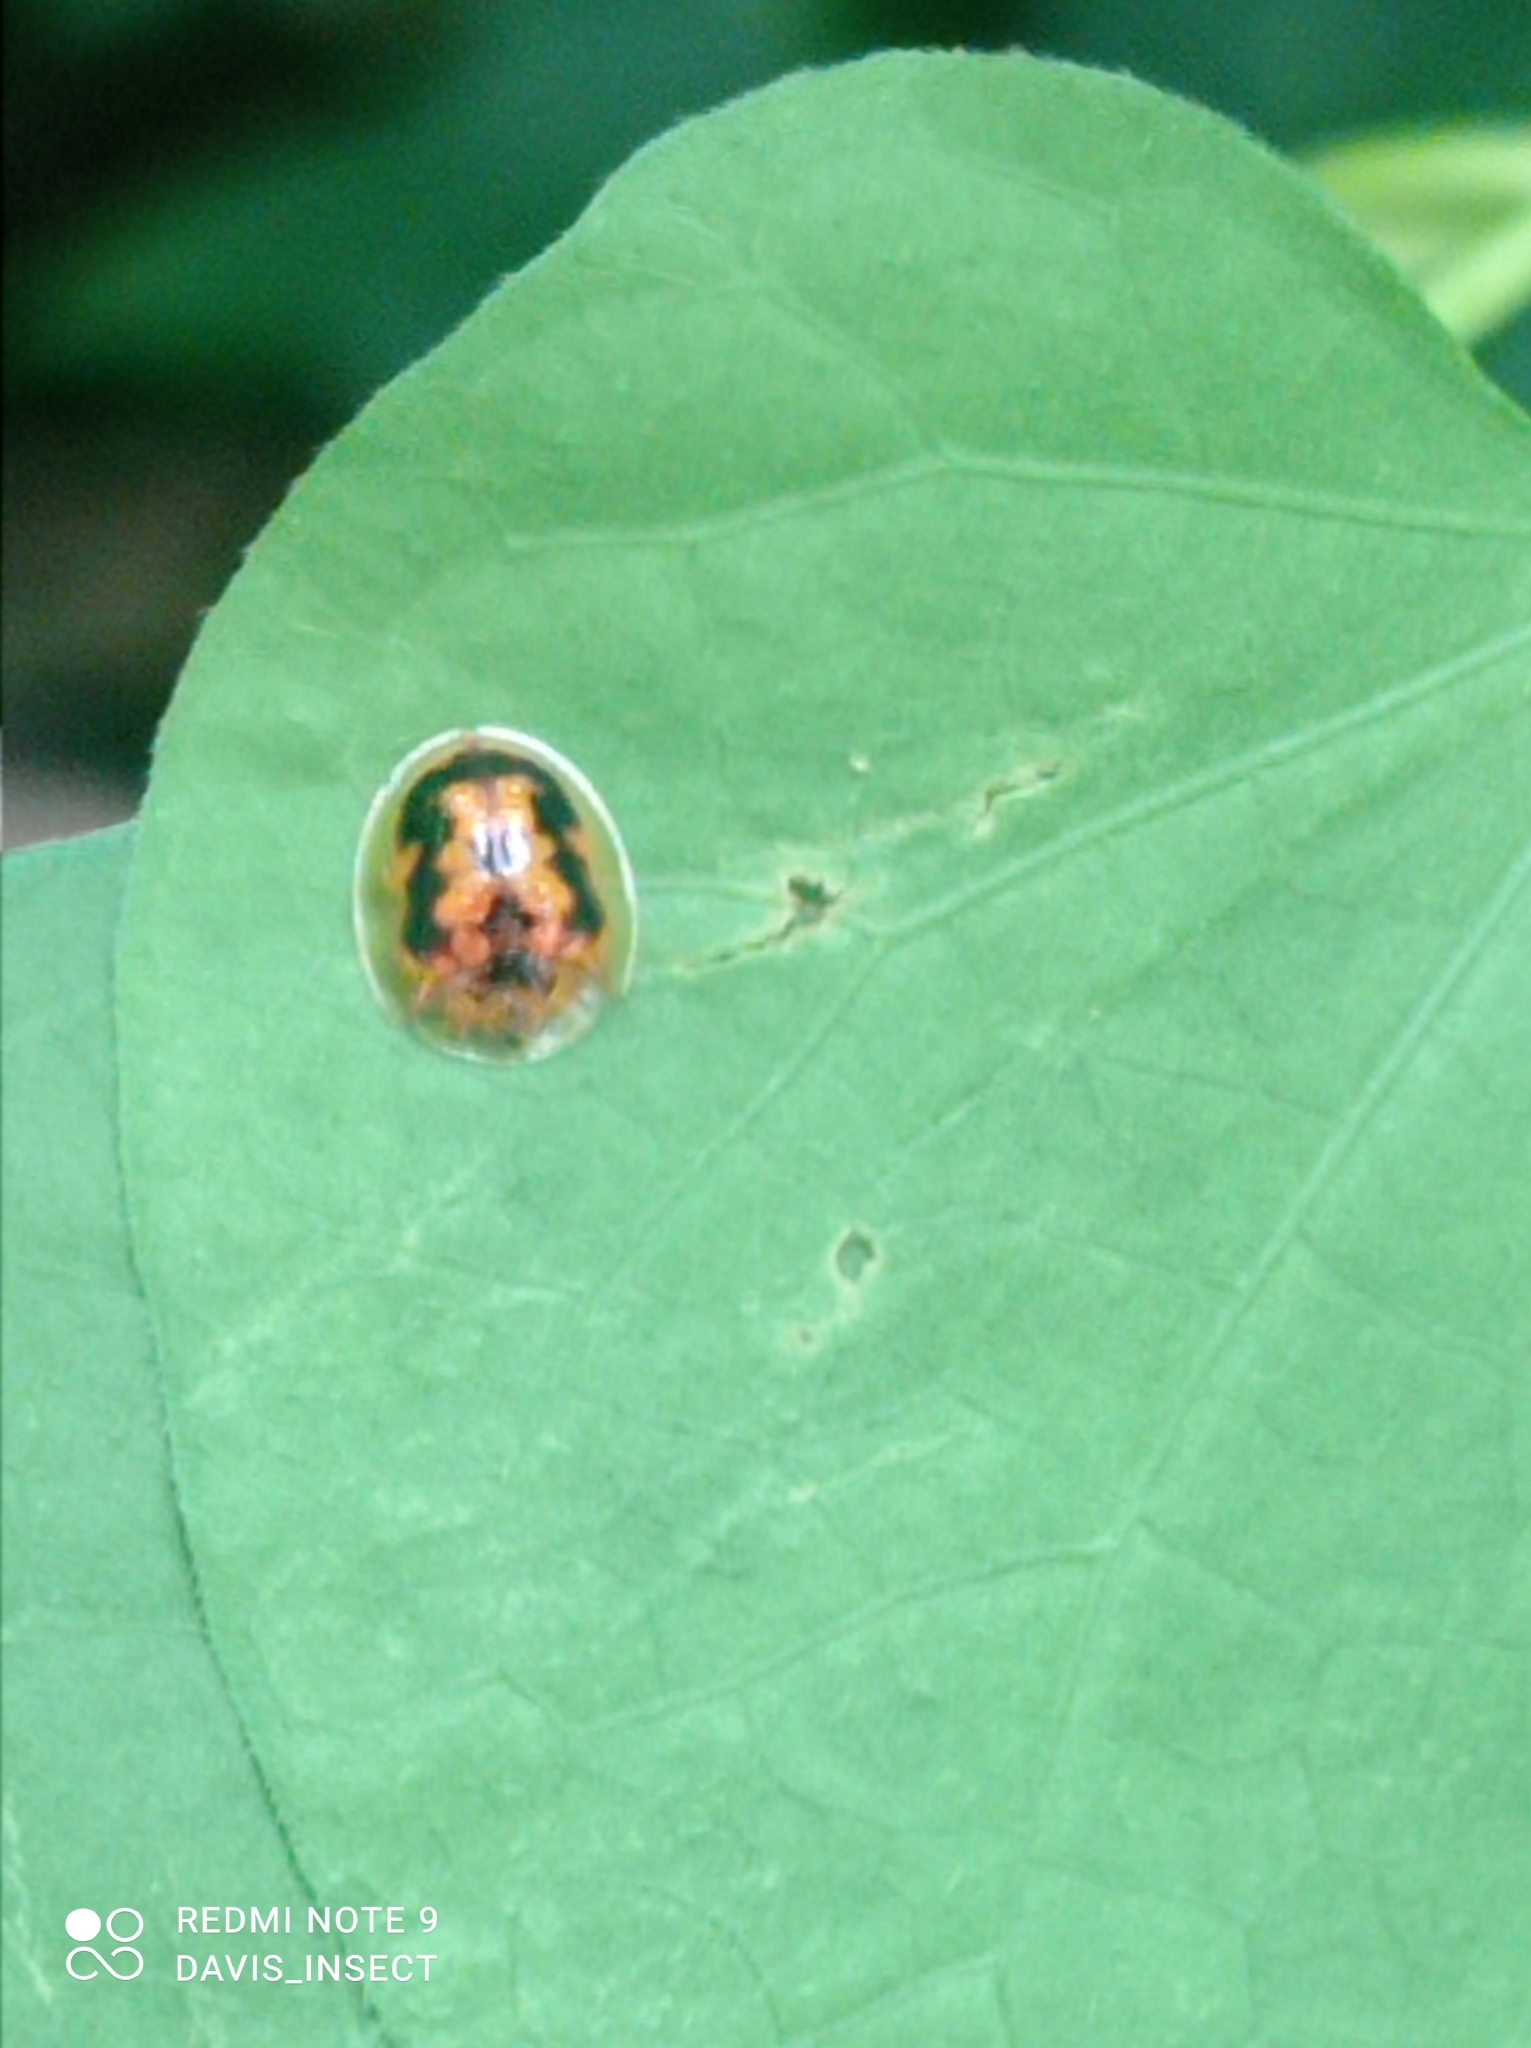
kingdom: Animalia
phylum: Arthropoda
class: Insecta
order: Coleoptera
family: Chrysomelidae
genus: Cassida
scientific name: Cassida timorensis
